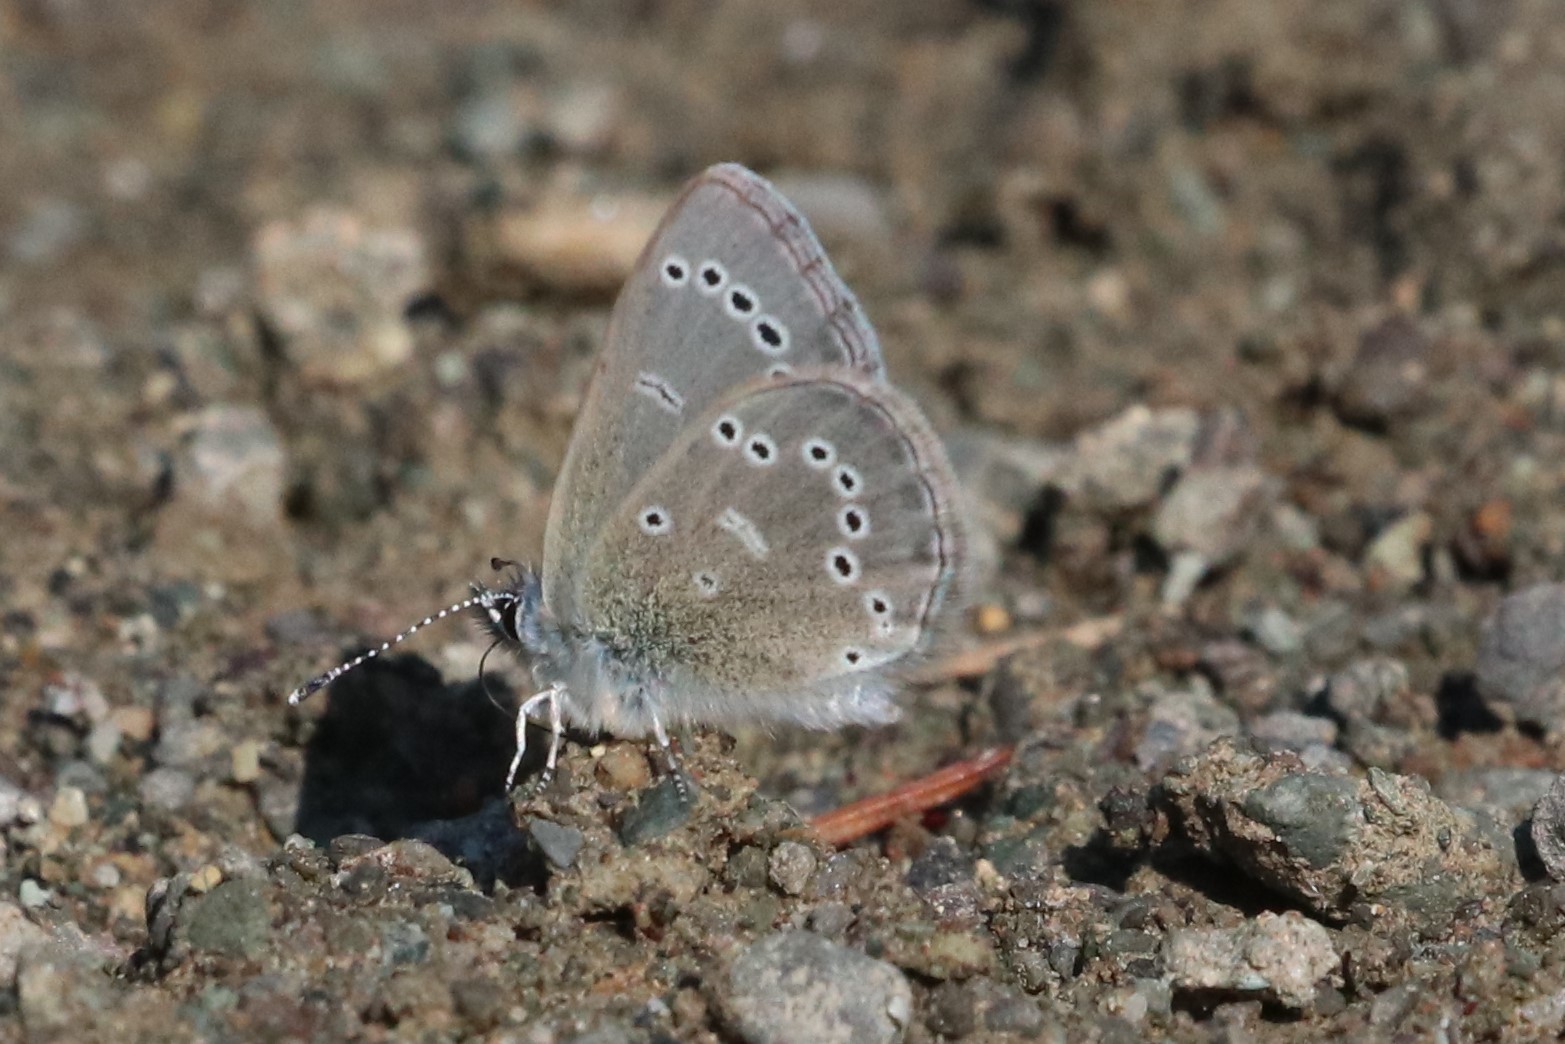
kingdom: Animalia
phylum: Arthropoda
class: Insecta
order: Lepidoptera
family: Lycaenidae
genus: Glaucopsyche
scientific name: Glaucopsyche lygdamus
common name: Silvery blue
